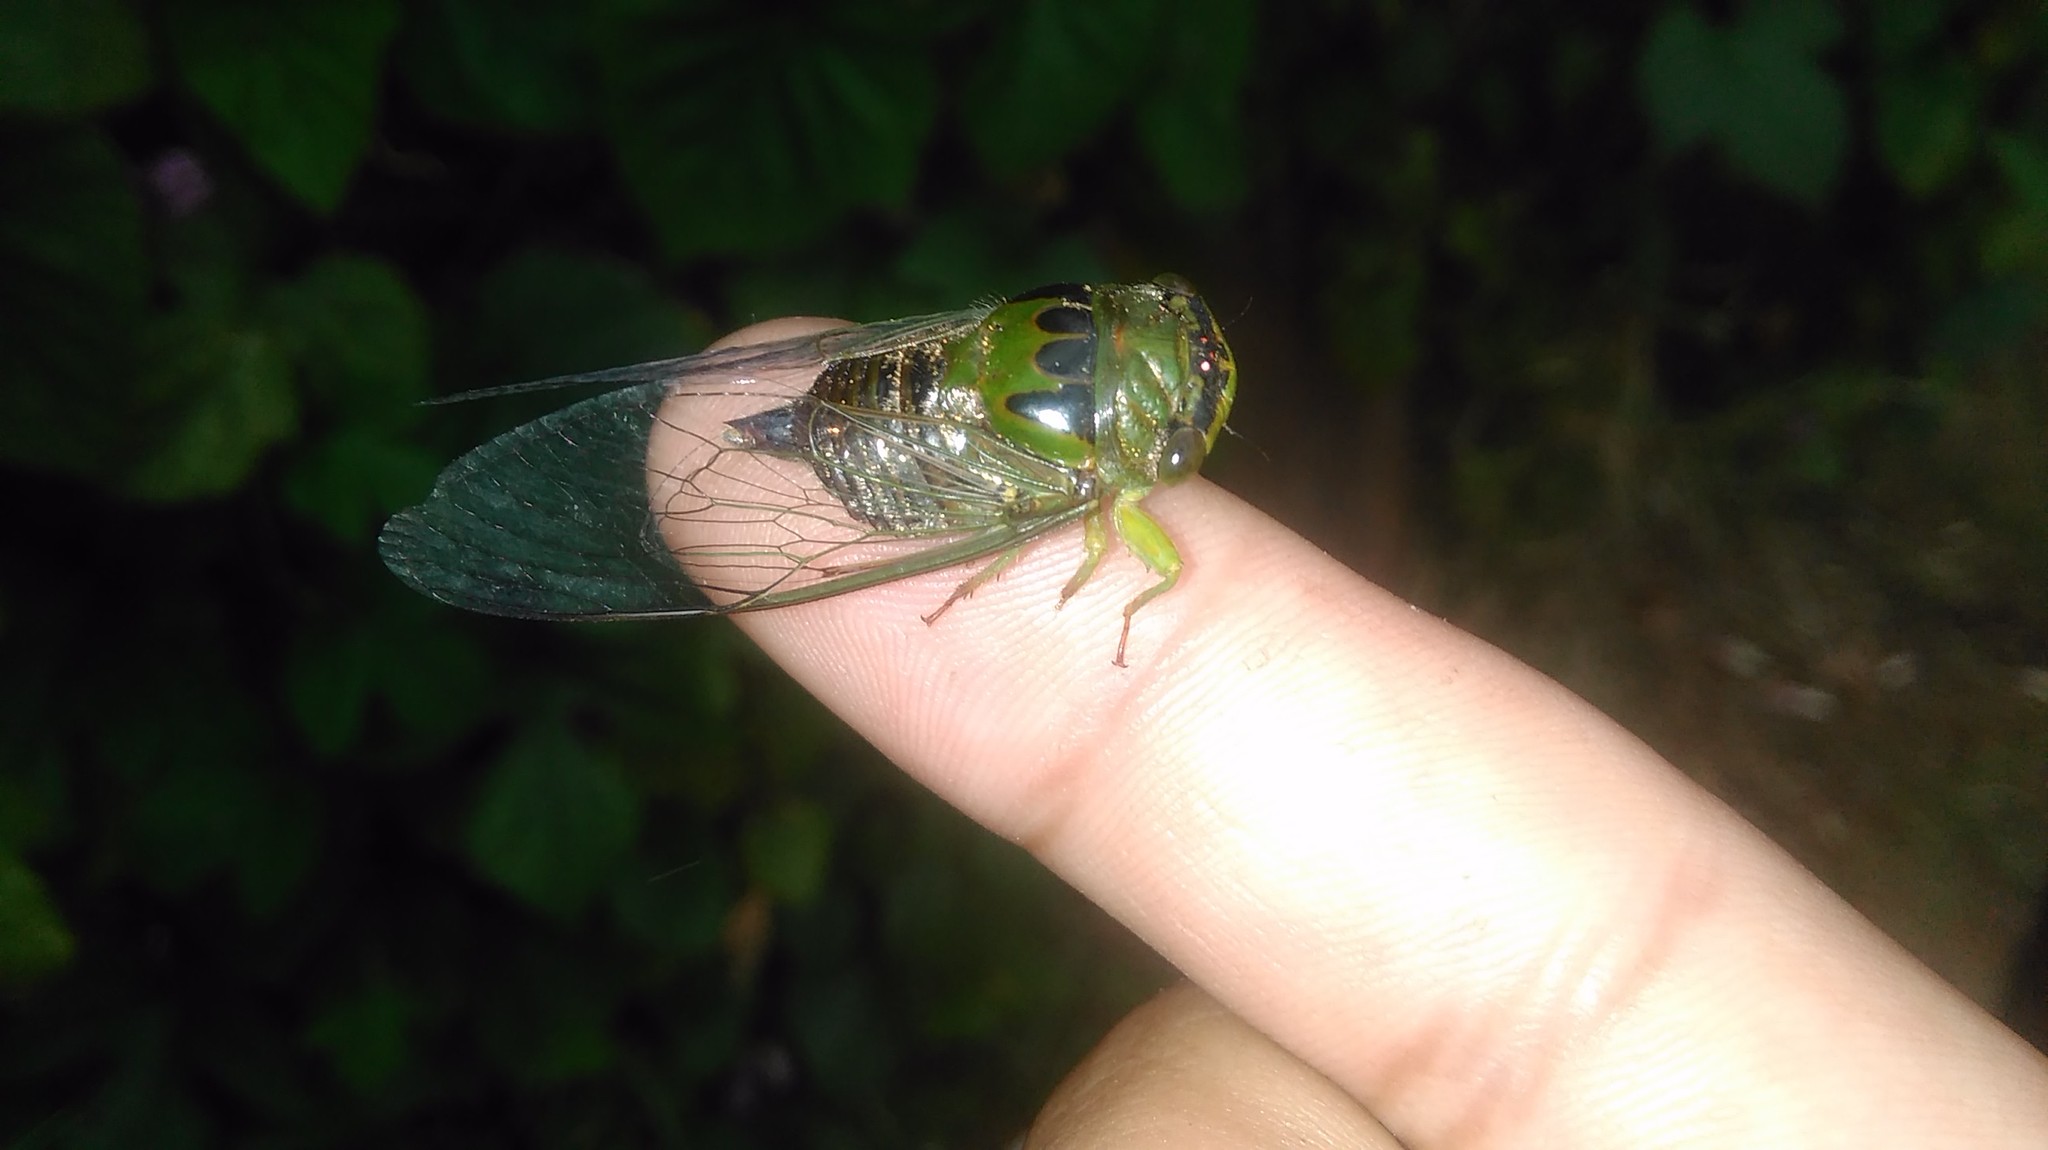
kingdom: Animalia
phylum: Arthropoda
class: Insecta
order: Hemiptera
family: Cicadidae
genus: Acanthoventris
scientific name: Acanthoventris drewseni
